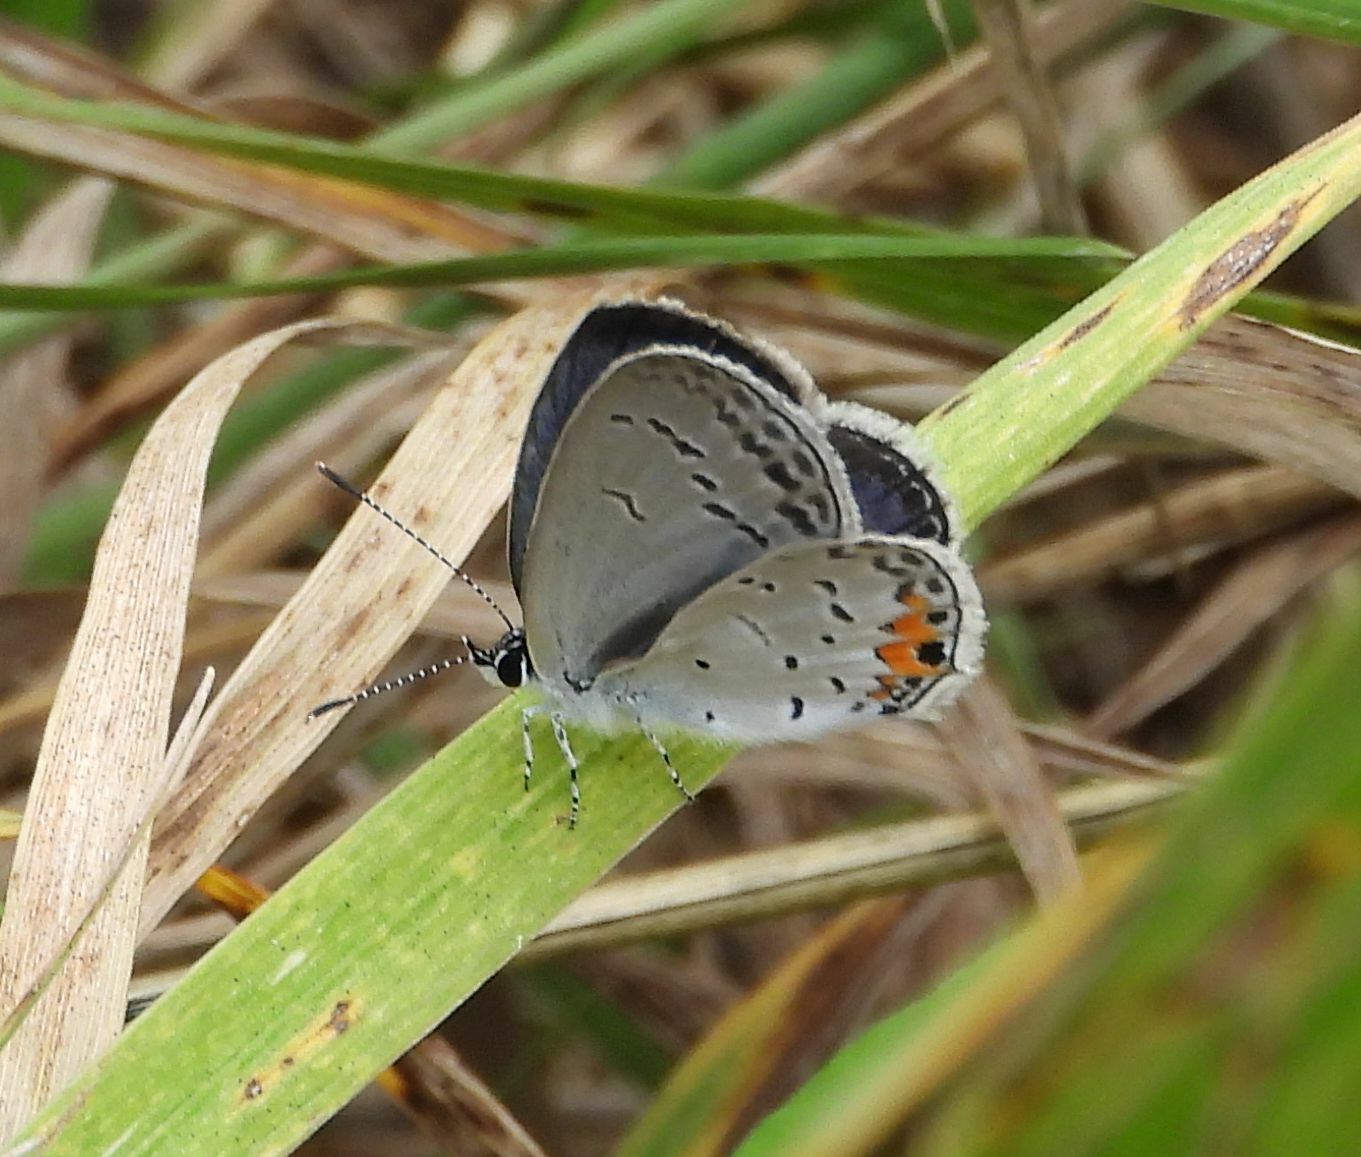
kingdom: Animalia
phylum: Arthropoda
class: Insecta
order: Lepidoptera
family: Lycaenidae
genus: Elkalyce
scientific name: Elkalyce comyntas
